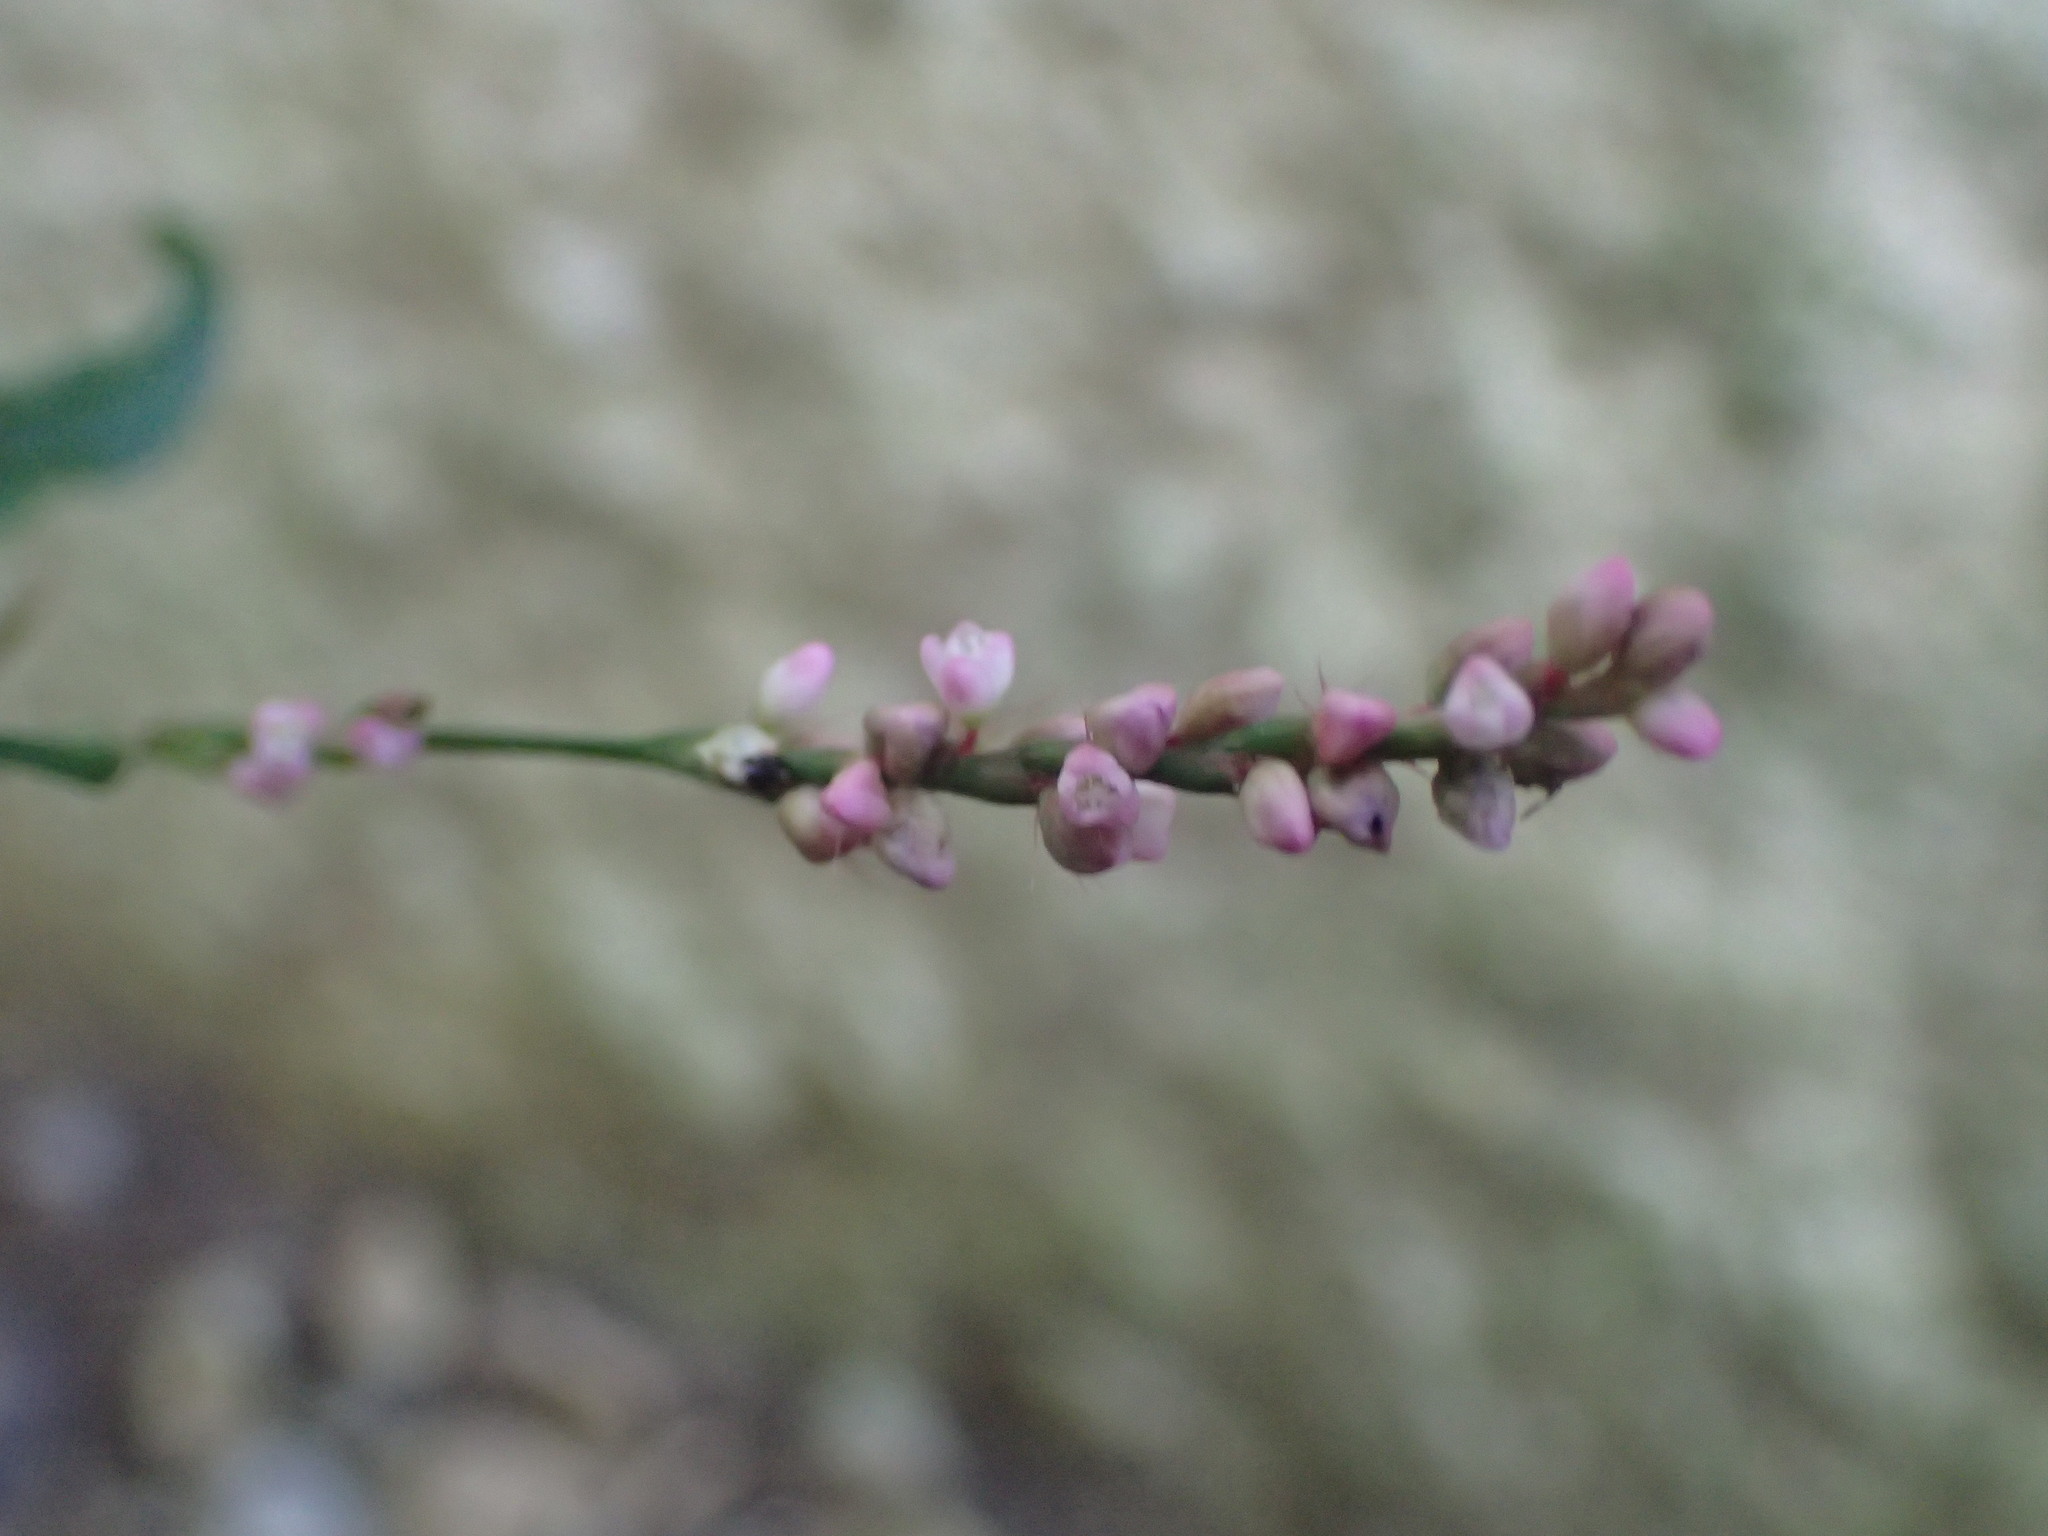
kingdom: Plantae
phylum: Tracheophyta
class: Magnoliopsida
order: Caryophyllales
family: Polygonaceae
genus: Persicaria
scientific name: Persicaria longiseta
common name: Bristly lady's-thumb
